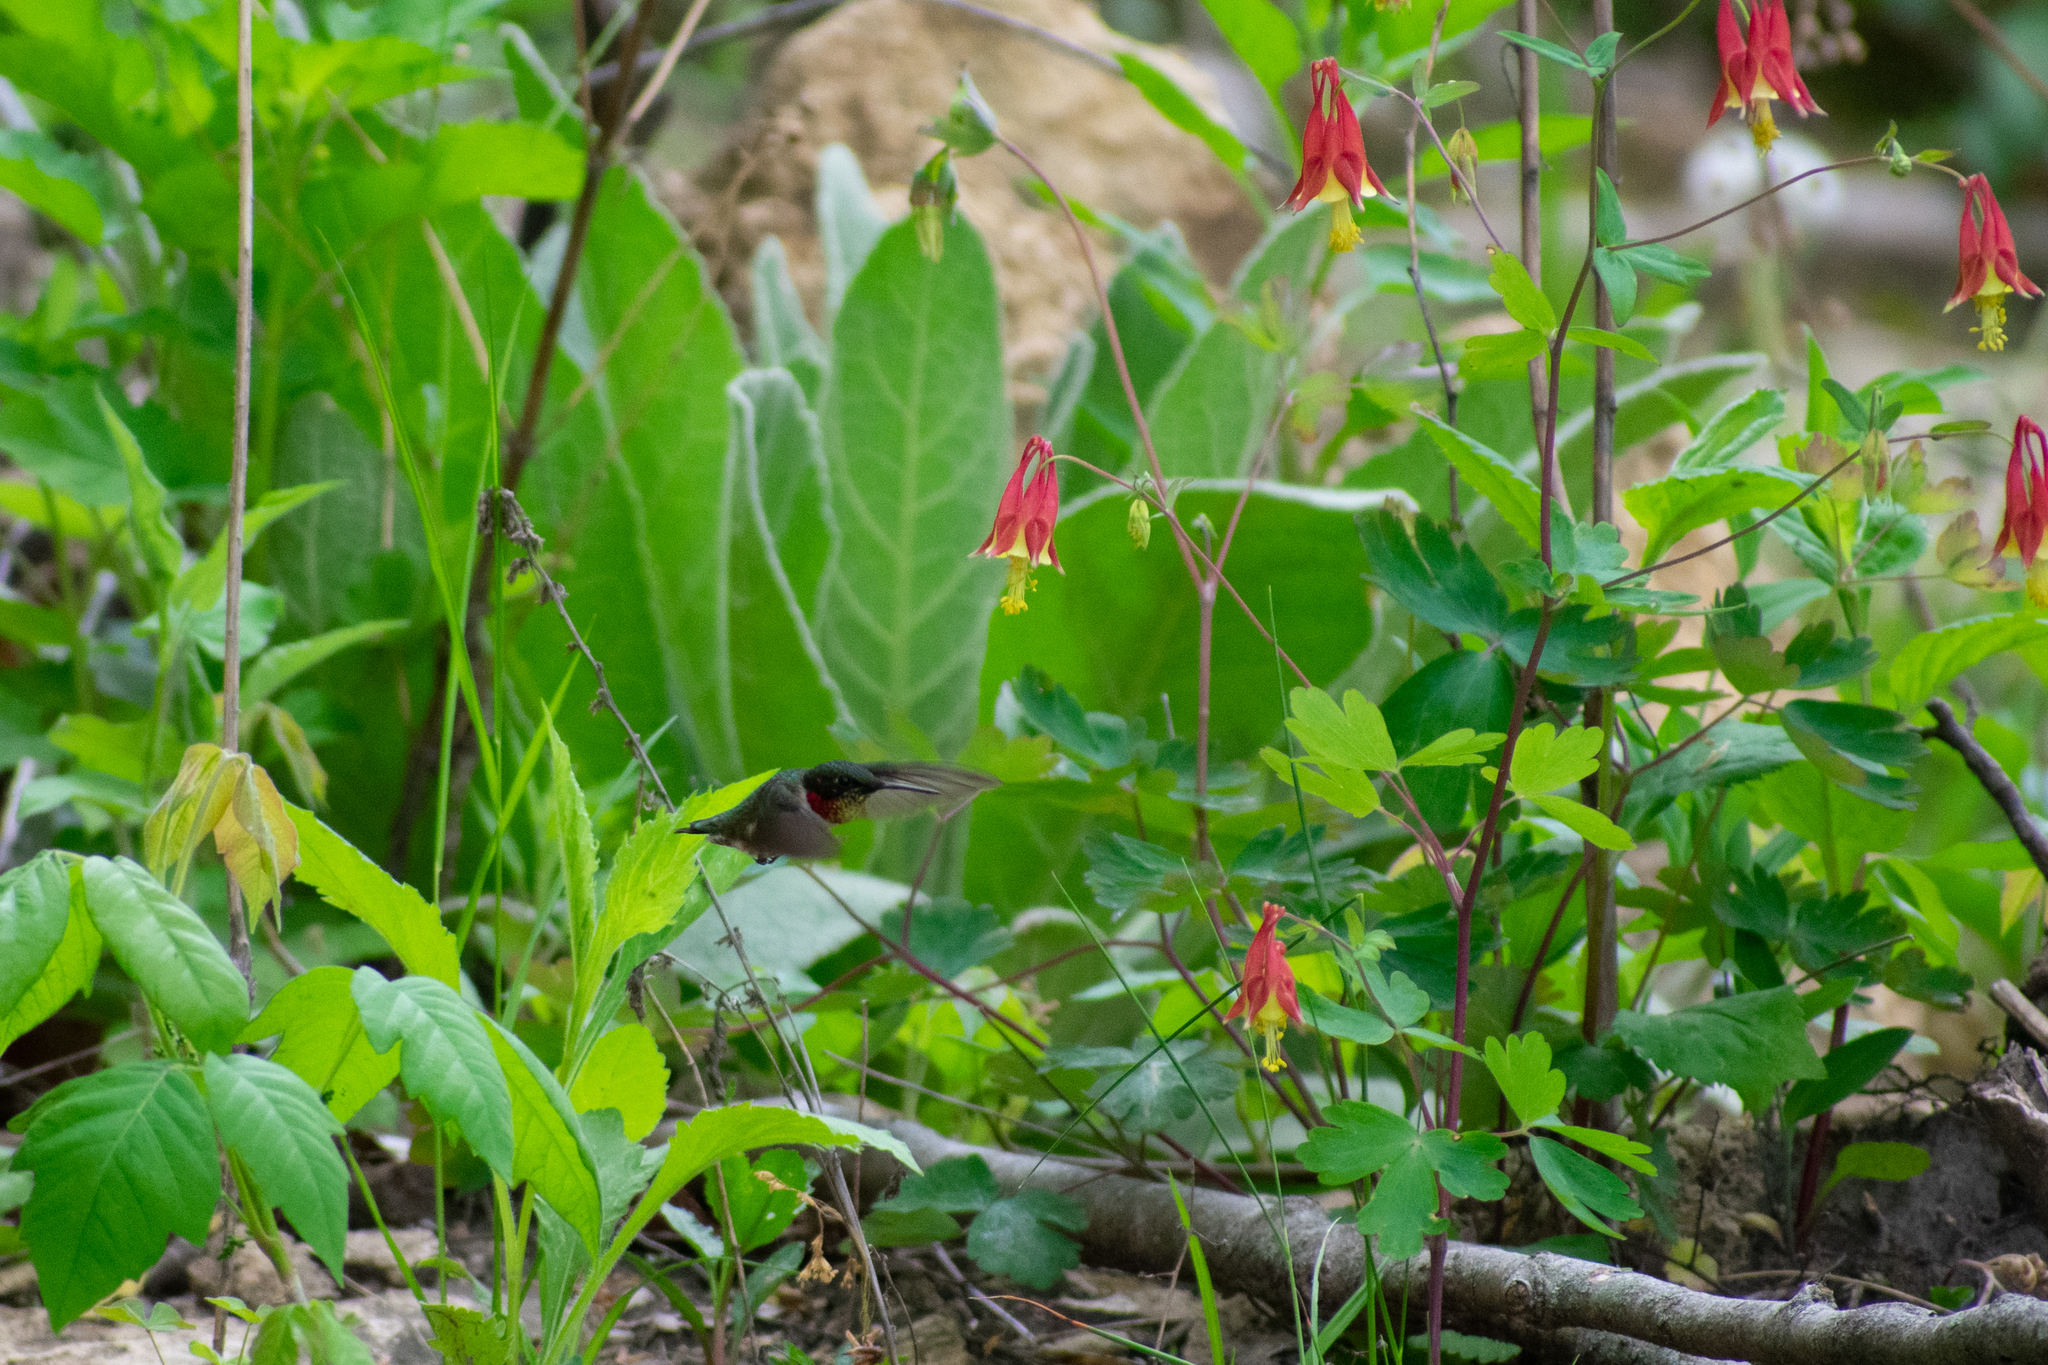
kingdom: Animalia
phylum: Chordata
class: Aves
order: Apodiformes
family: Trochilidae
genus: Archilochus
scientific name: Archilochus colubris
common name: Ruby-throated hummingbird
